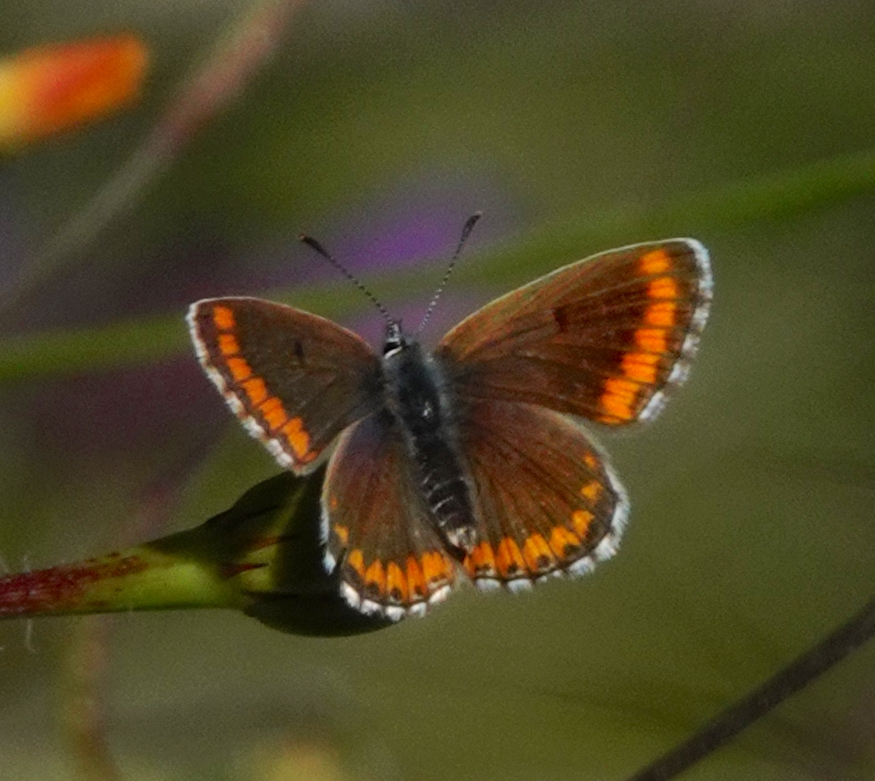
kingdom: Animalia
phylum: Arthropoda
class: Insecta
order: Lepidoptera
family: Lycaenidae
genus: Aricia
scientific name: Aricia cramera
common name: Eschscholtz´s brown  argus
